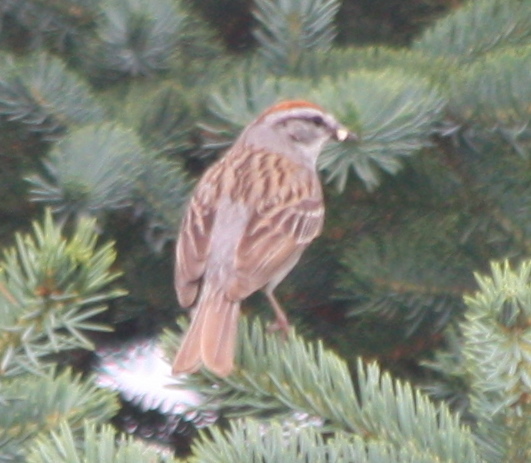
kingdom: Animalia
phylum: Chordata
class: Aves
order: Passeriformes
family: Passerellidae
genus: Spizella
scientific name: Spizella passerina
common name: Chipping sparrow
